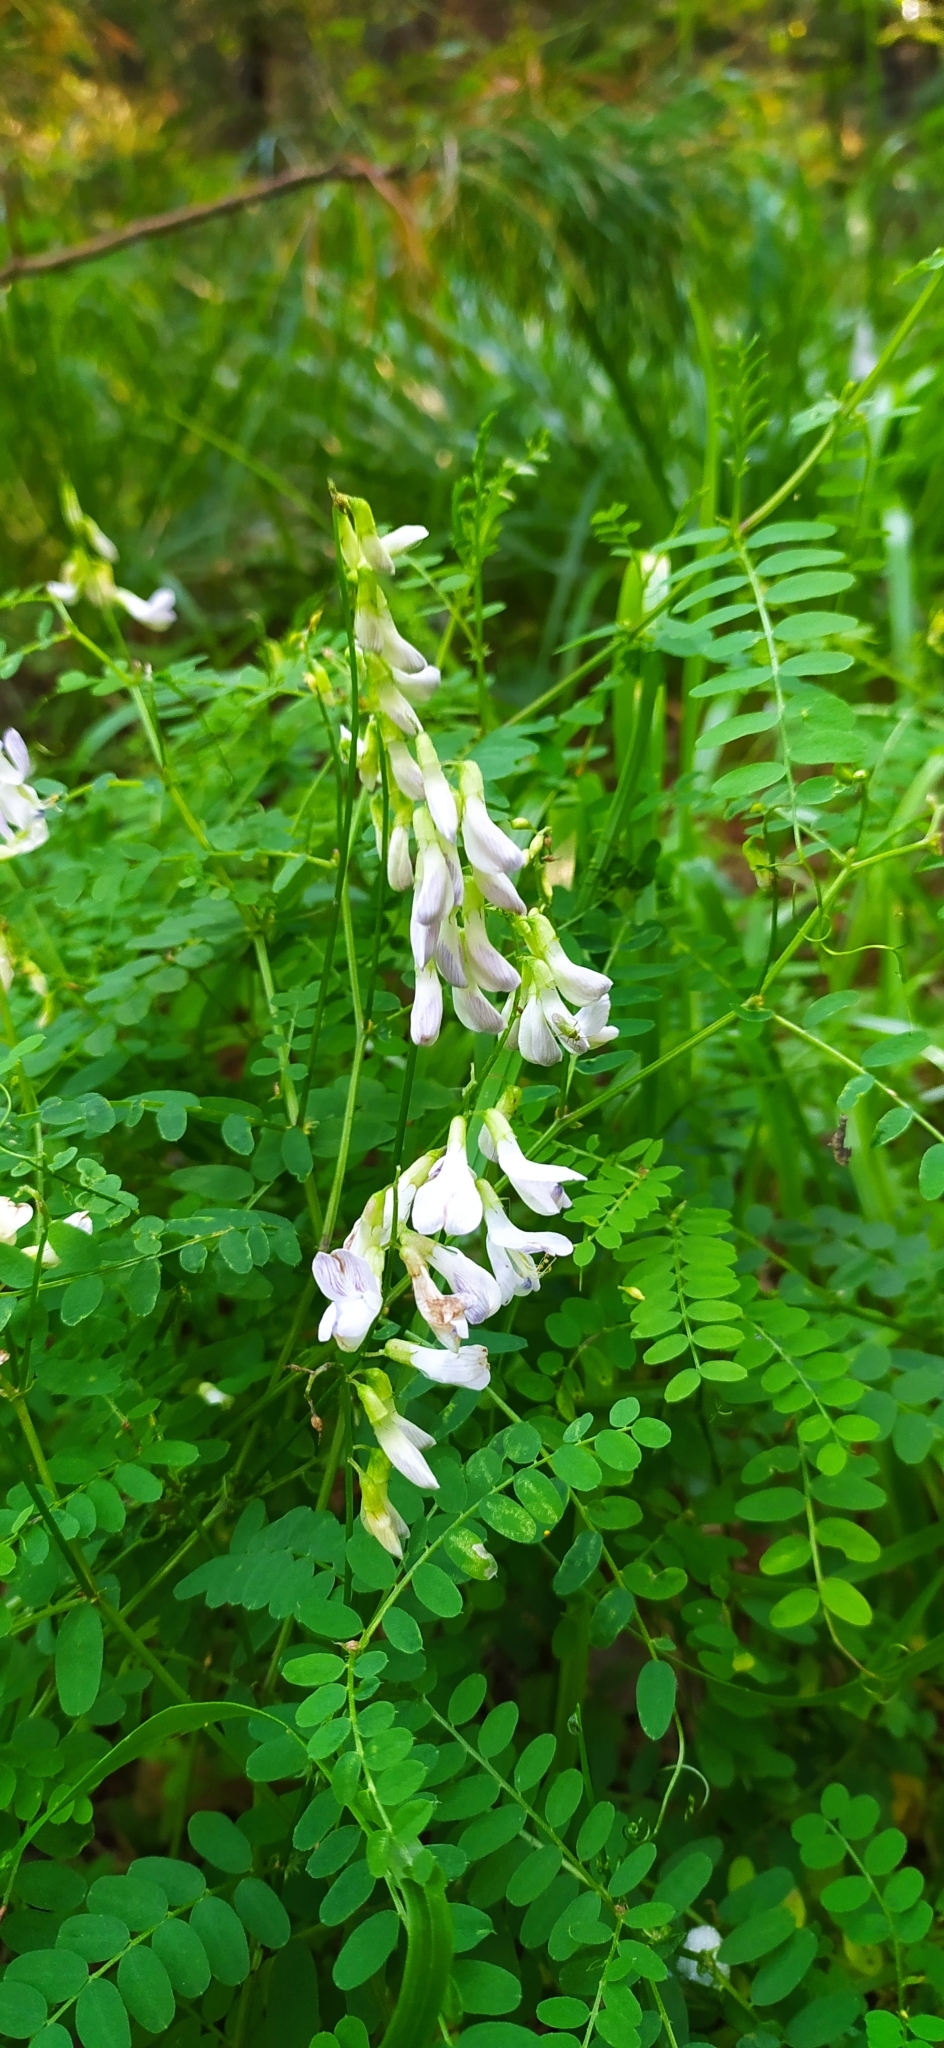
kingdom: Plantae
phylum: Tracheophyta
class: Magnoliopsida
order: Fabales
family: Fabaceae
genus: Vicia
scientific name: Vicia sylvatica
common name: Wood vetch
